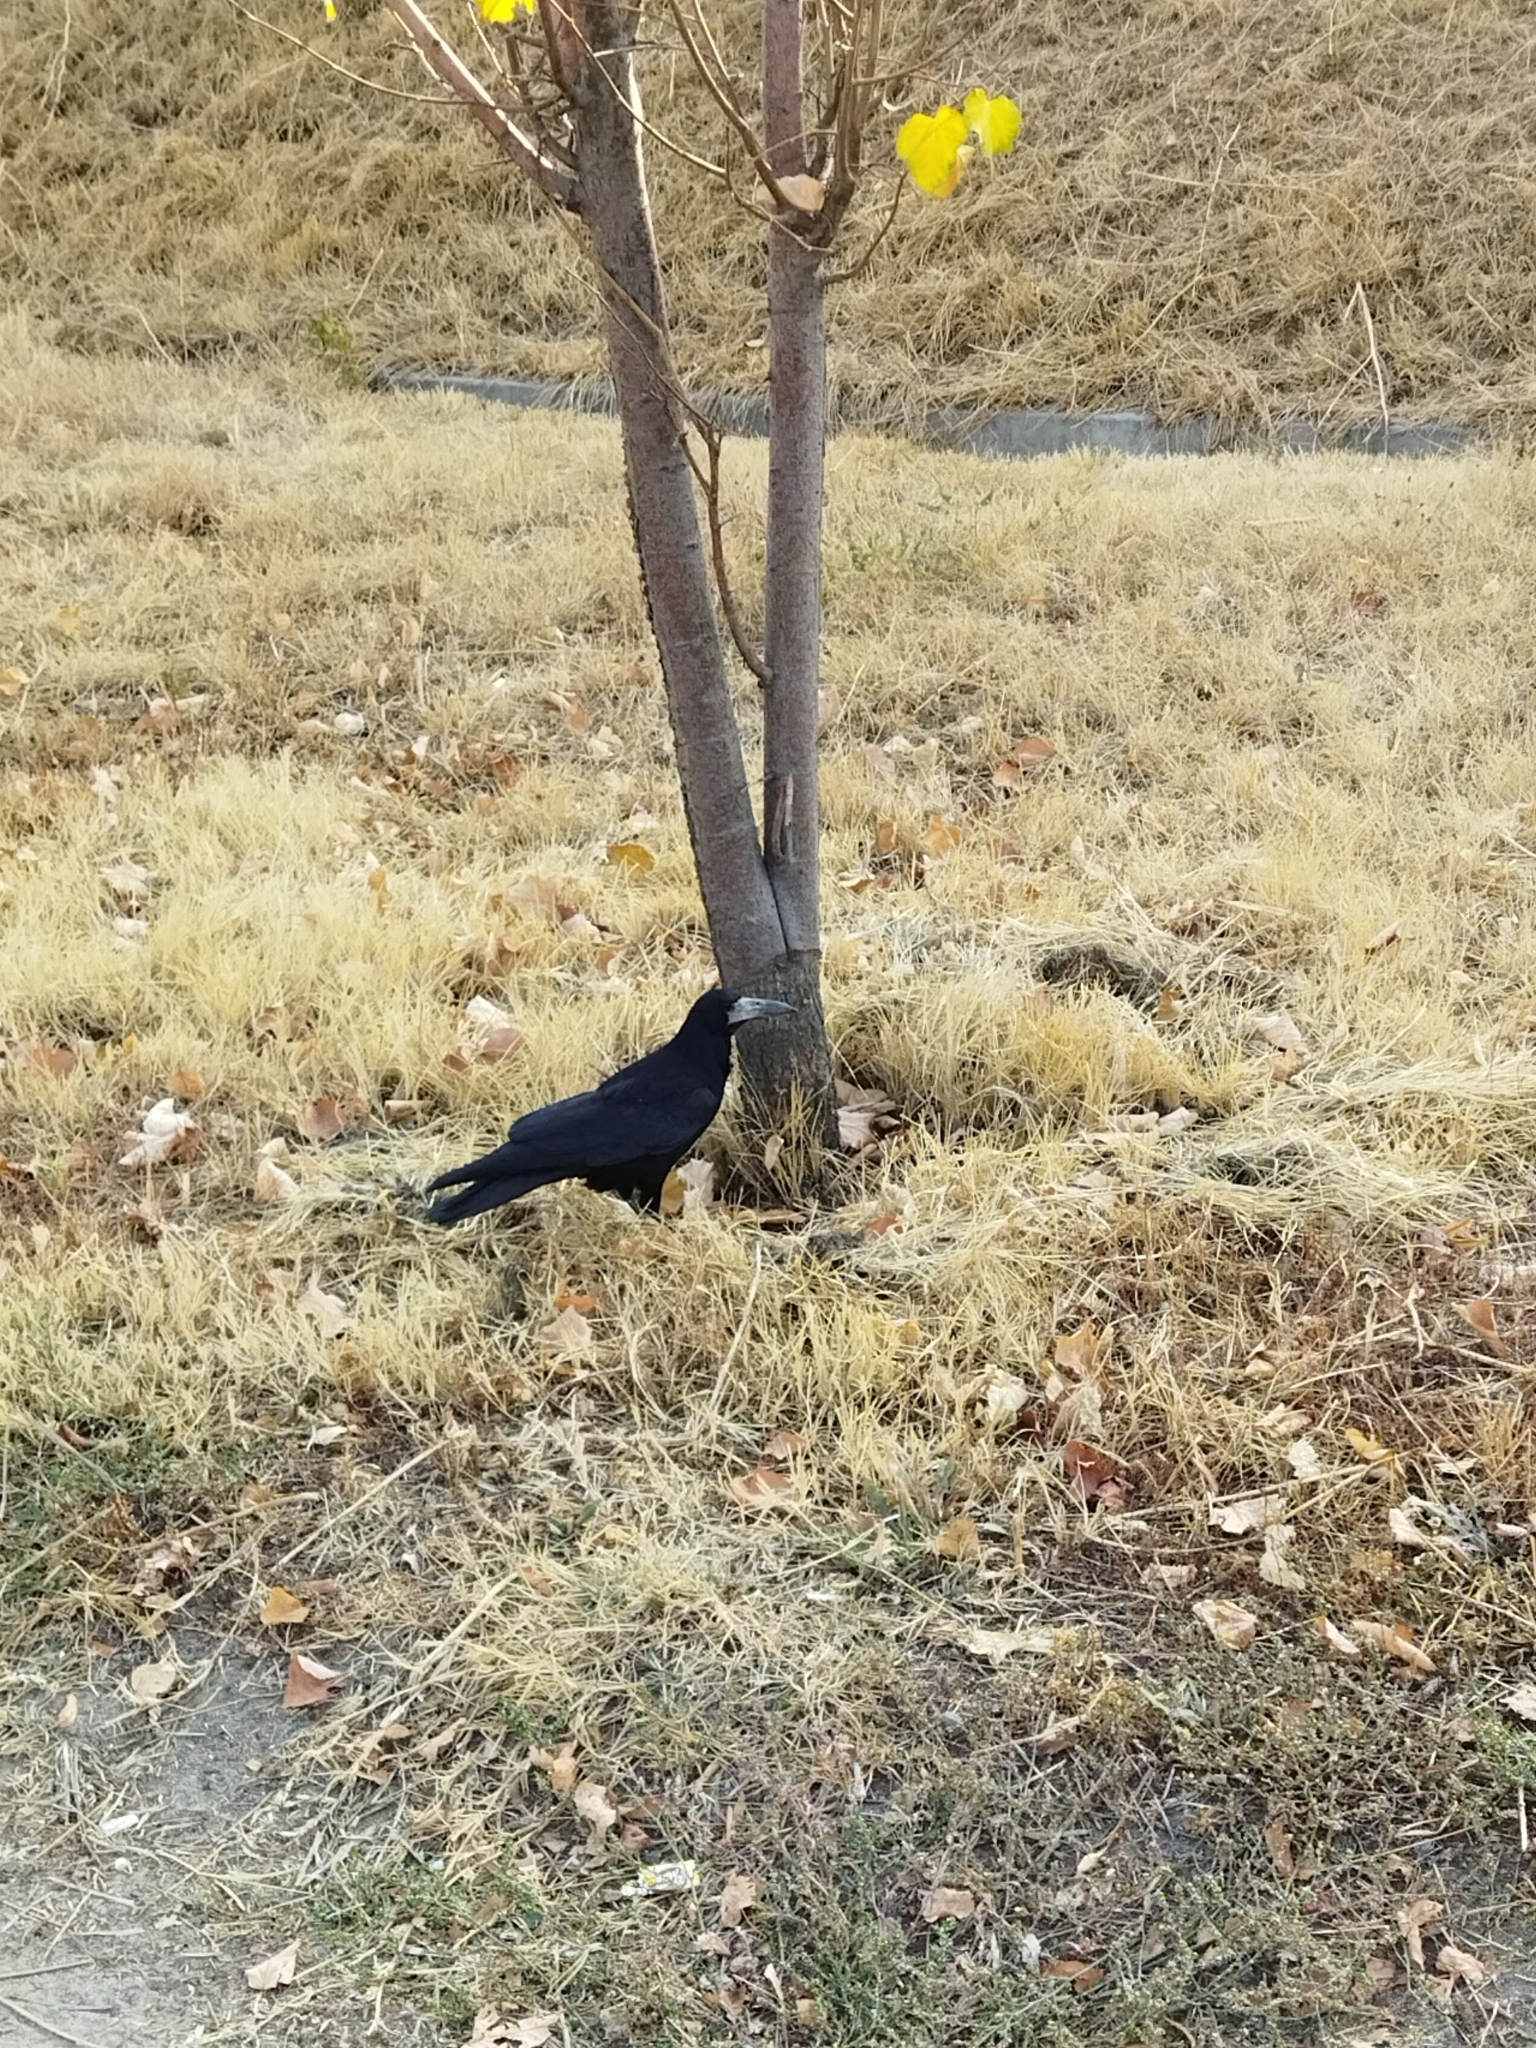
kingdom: Animalia
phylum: Chordata
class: Aves
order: Passeriformes
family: Corvidae
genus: Corvus
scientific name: Corvus frugilegus
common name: Rook
